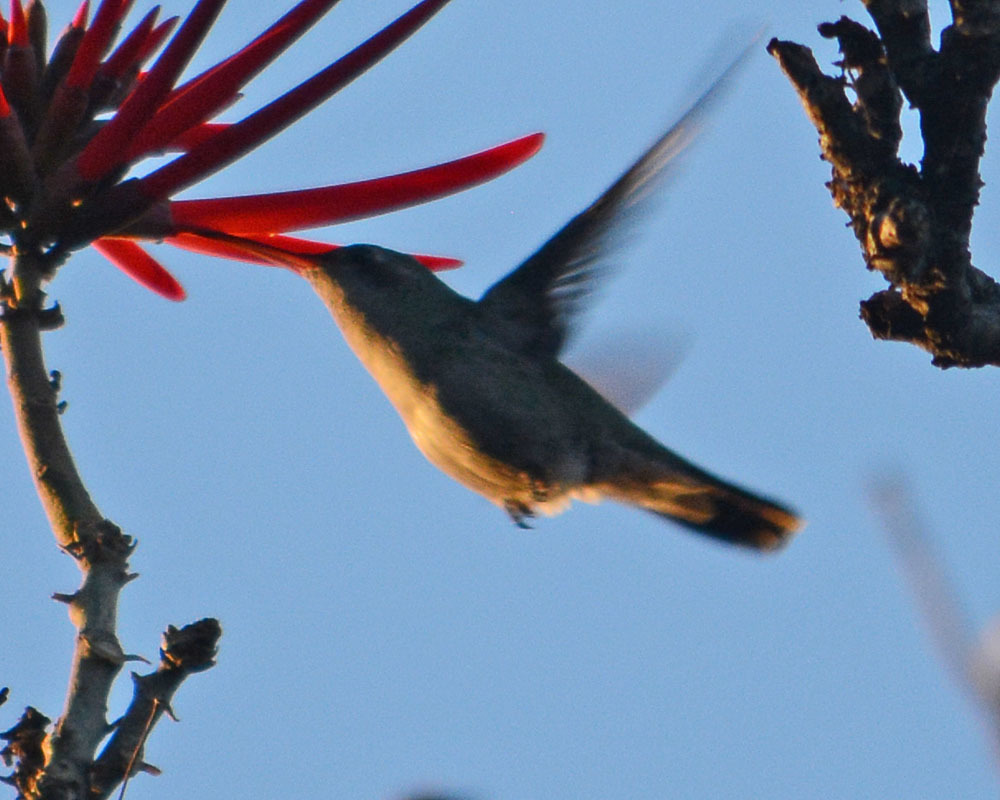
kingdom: Animalia
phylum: Chordata
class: Aves
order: Apodiformes
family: Trochilidae
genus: Cynanthus
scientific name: Cynanthus latirostris
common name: Broad-billed hummingbird
